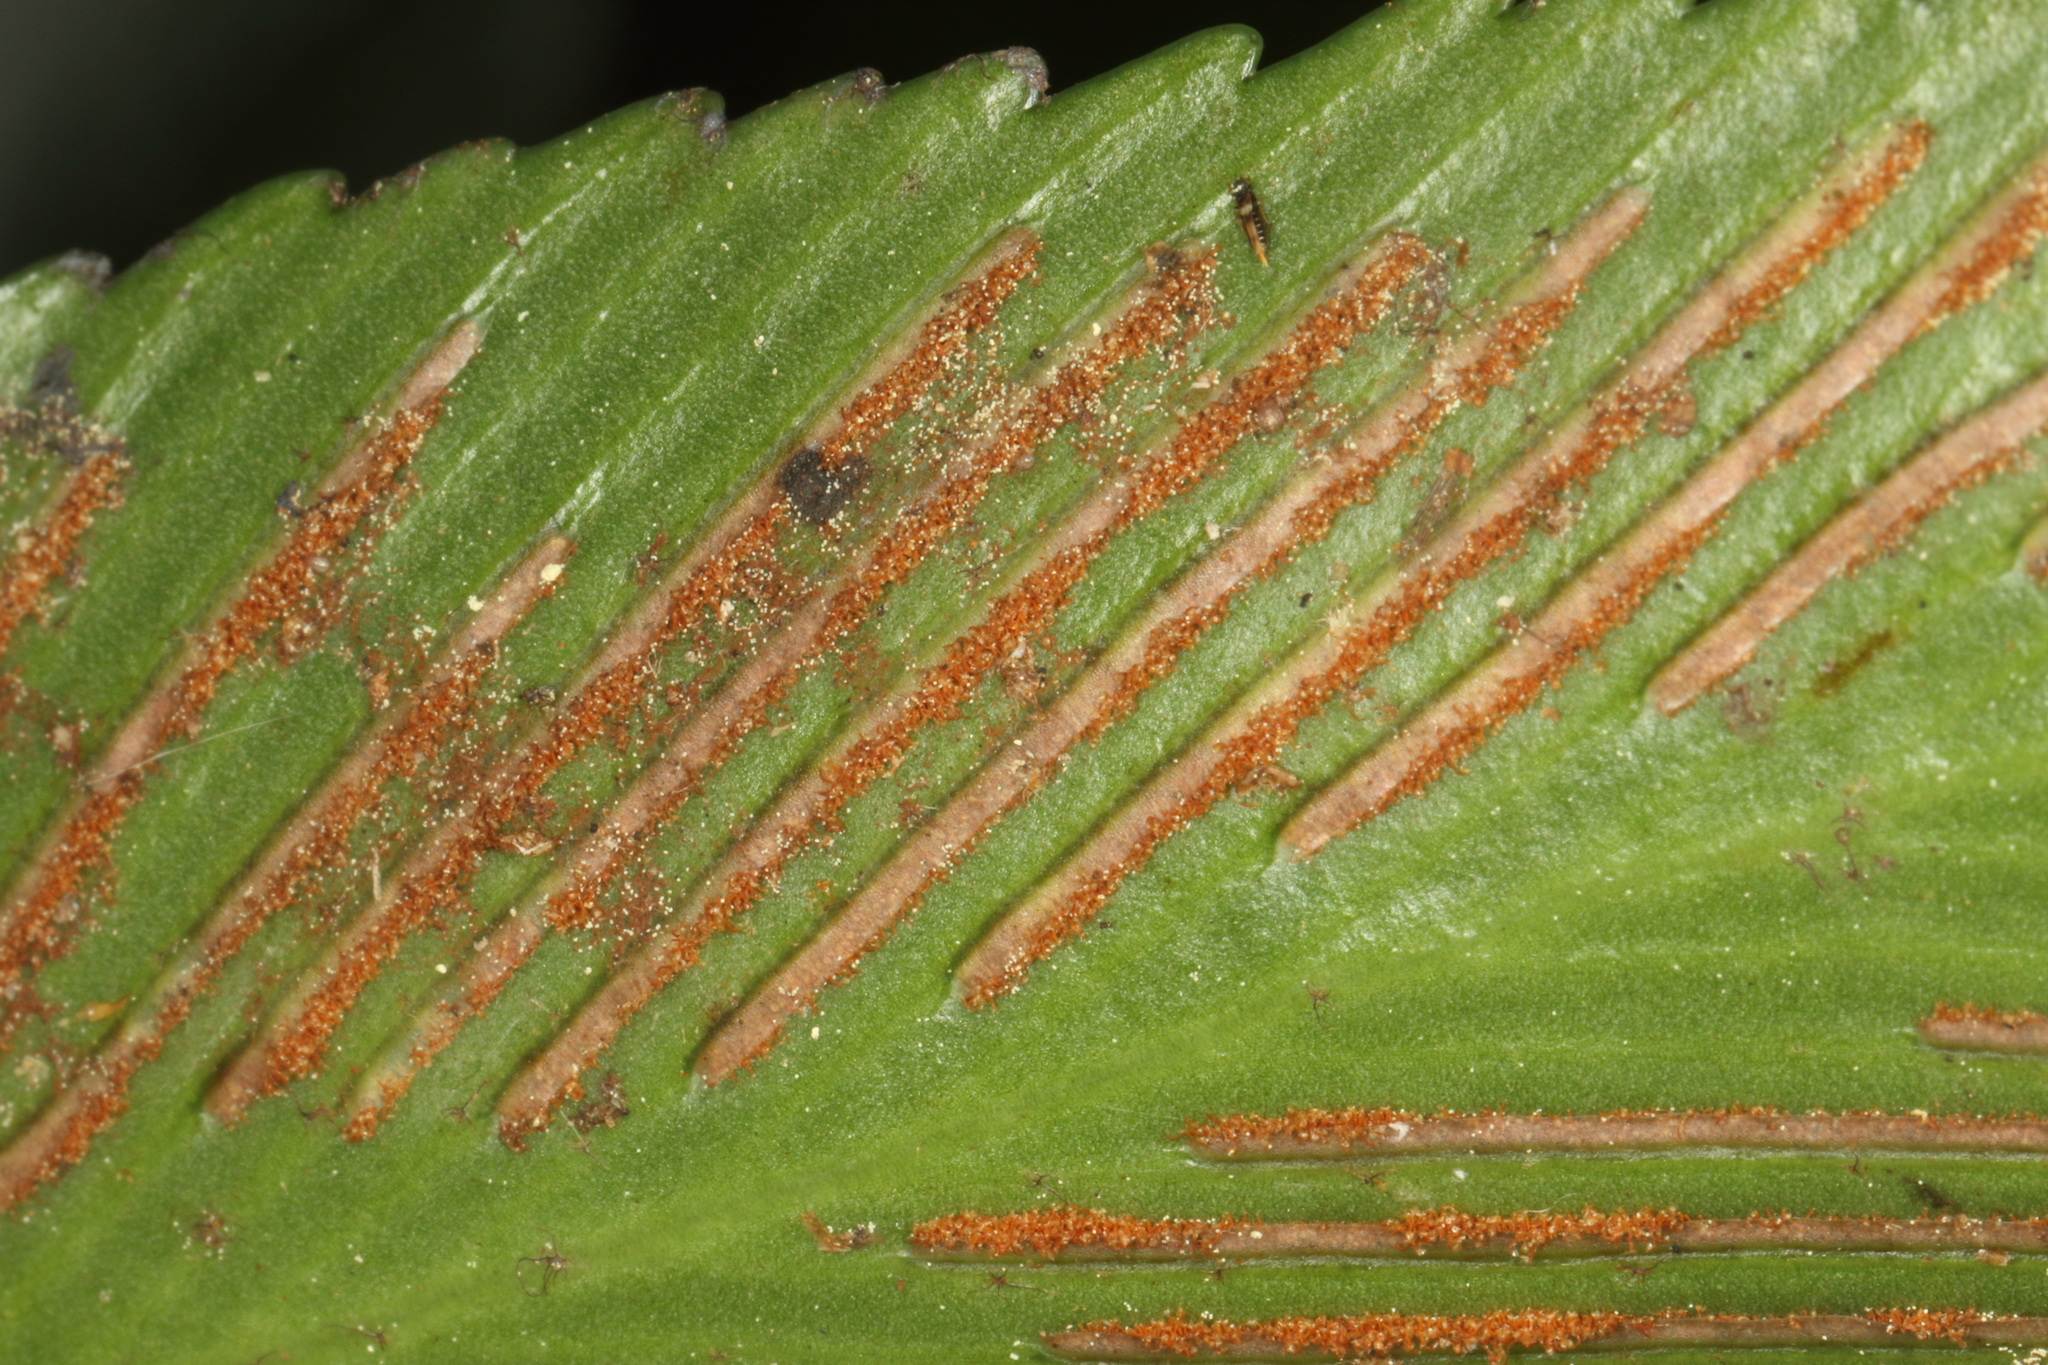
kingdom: Plantae
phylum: Tracheophyta
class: Polypodiopsida
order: Polypodiales
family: Aspleniaceae
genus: Asplenium
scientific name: Asplenium oblongifolium
